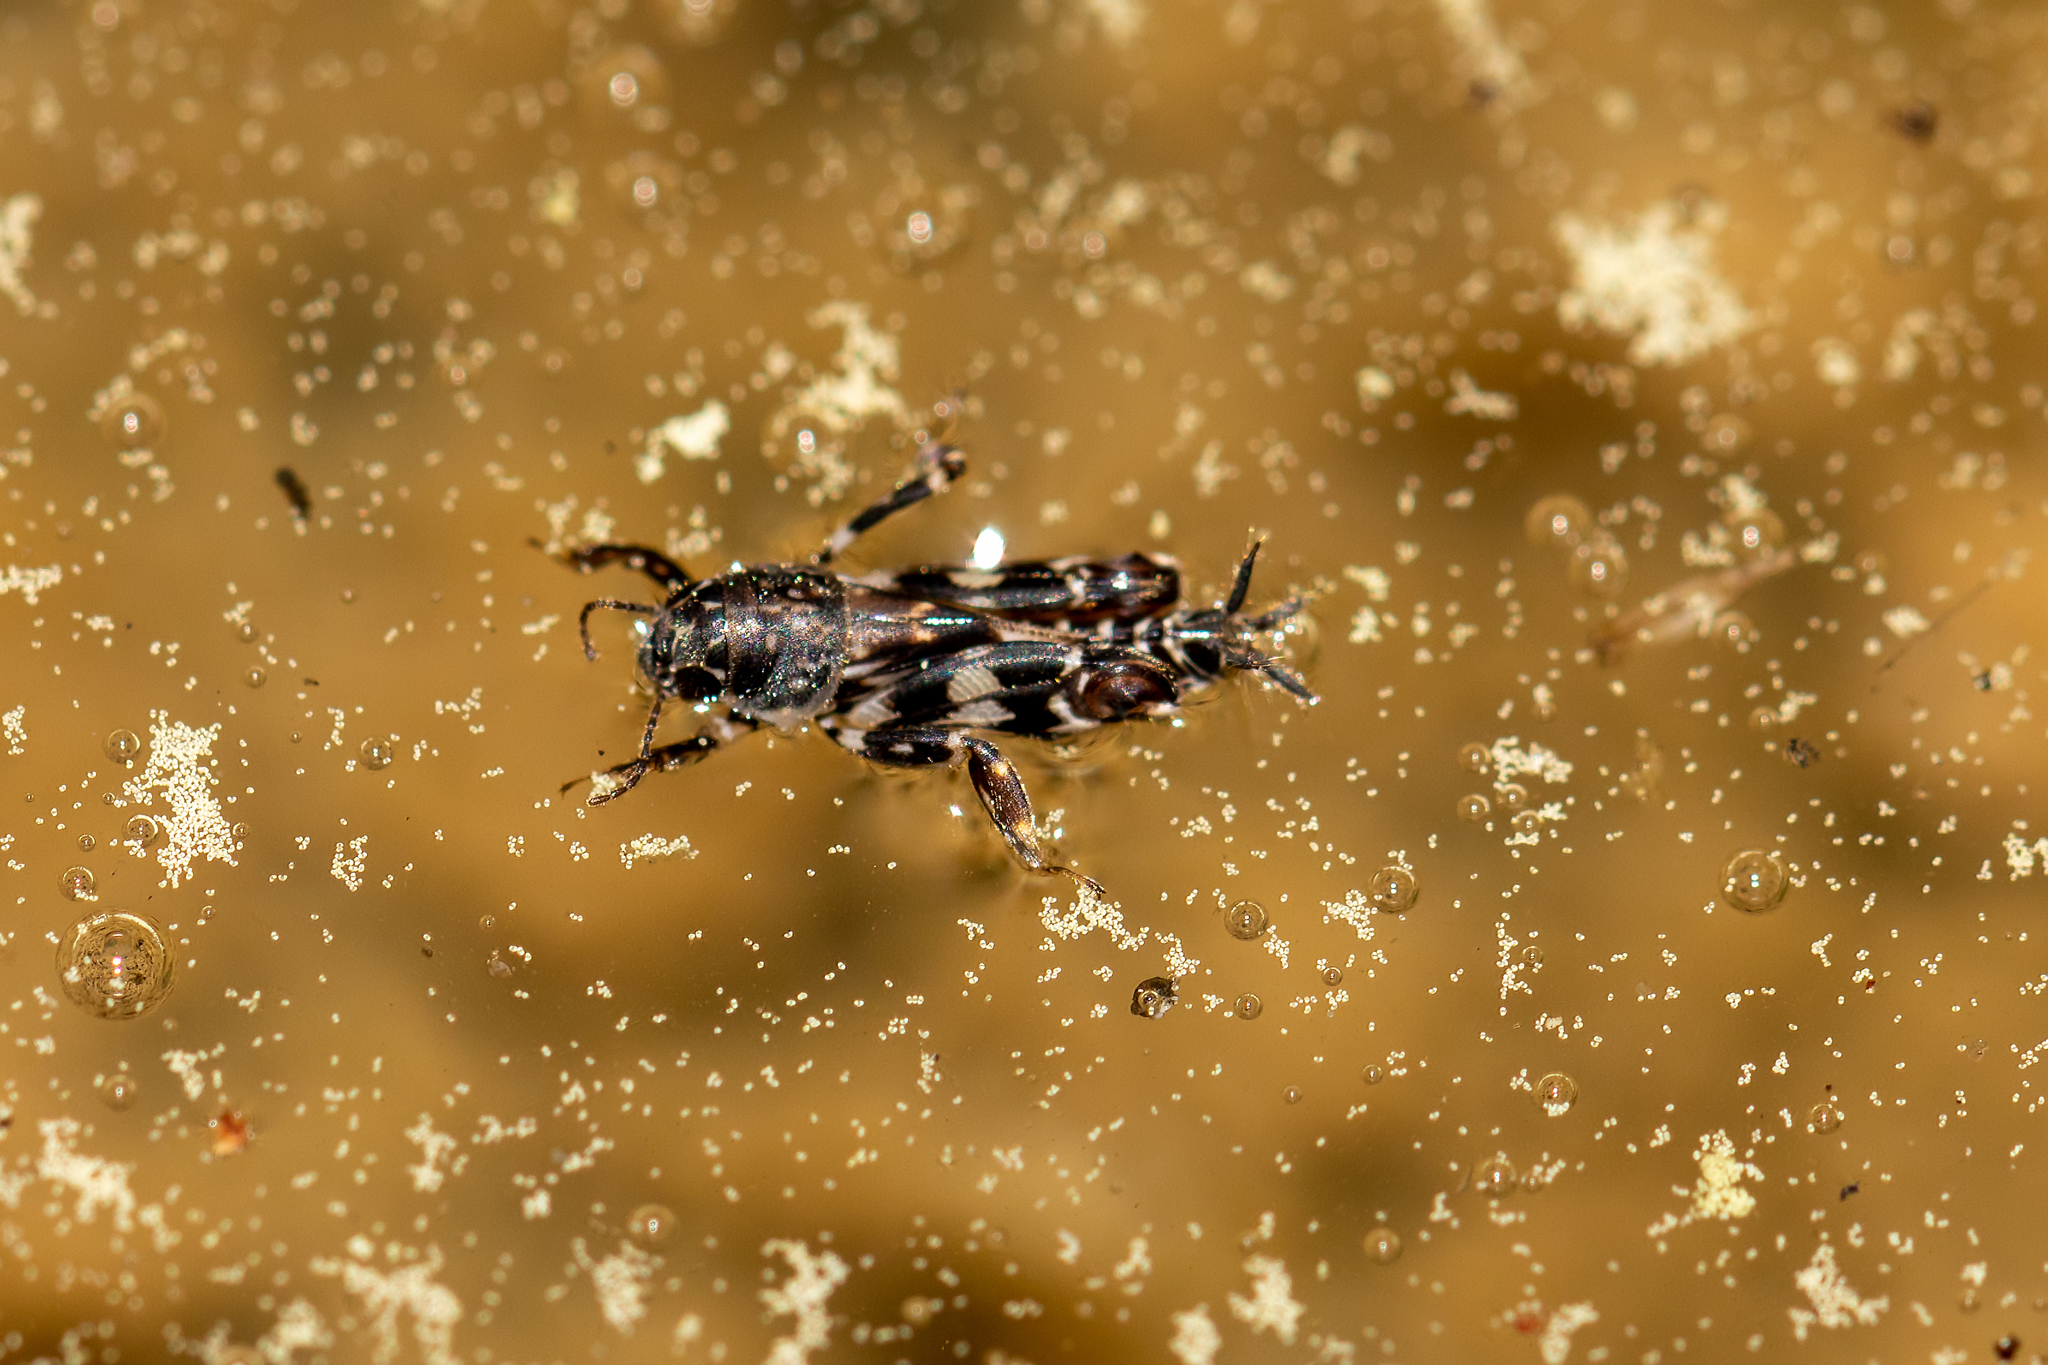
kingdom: Animalia
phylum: Arthropoda
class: Insecta
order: Orthoptera
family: Tridactylidae
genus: Ellipes
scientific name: Ellipes minuta
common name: Minute pygmy locust
